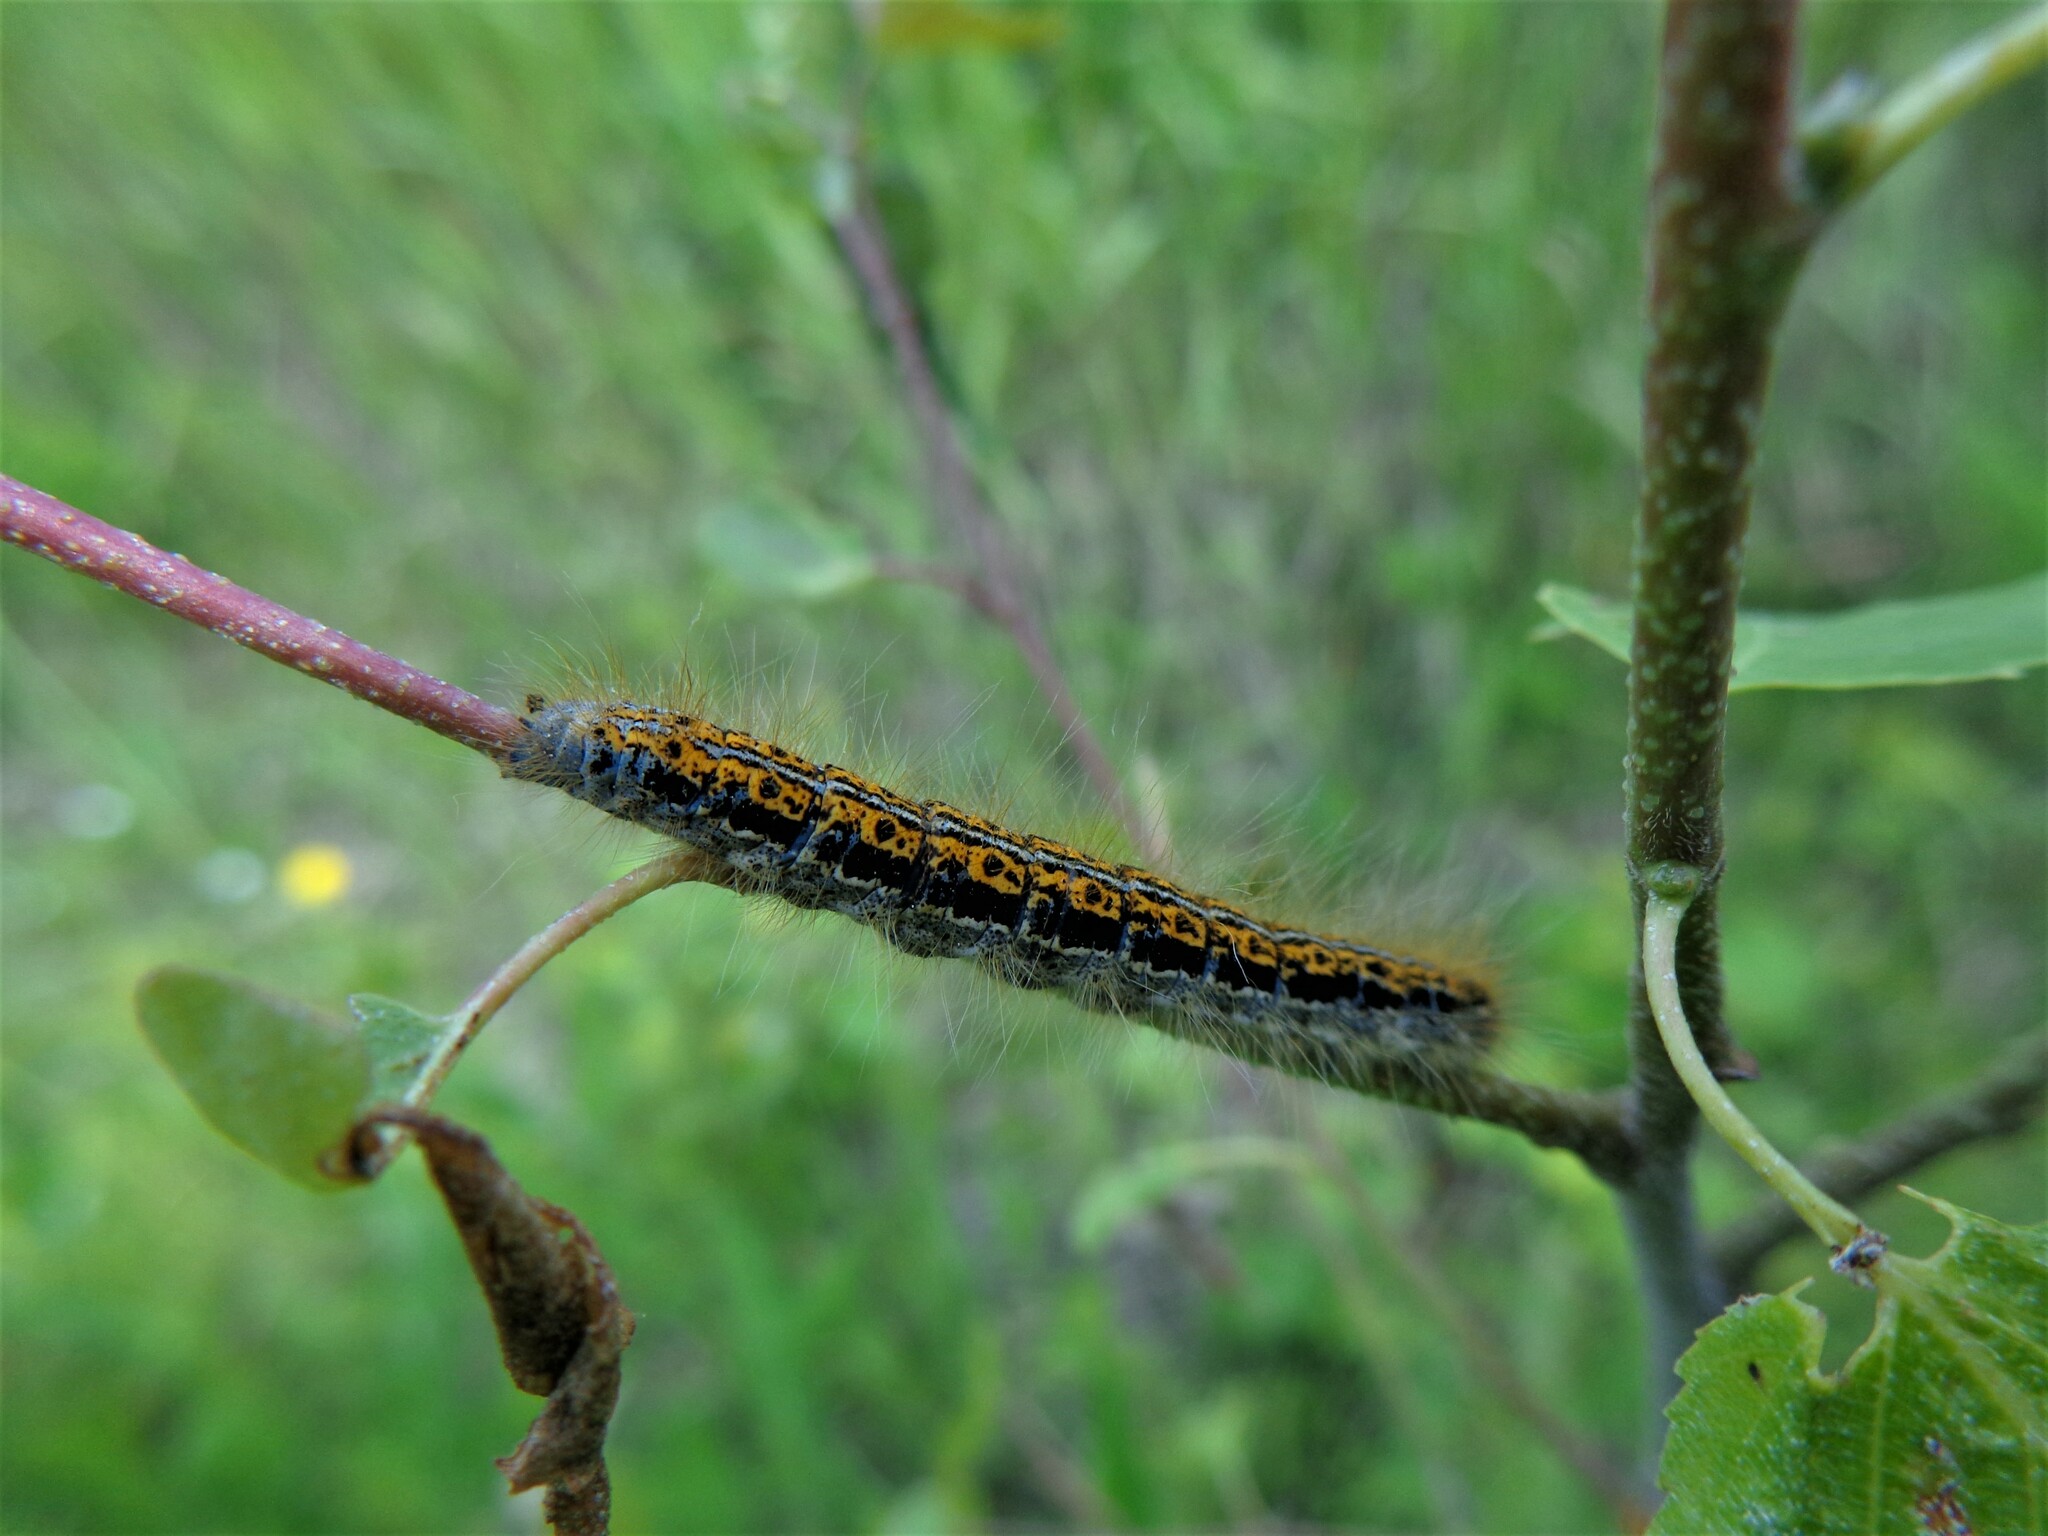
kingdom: Animalia
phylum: Arthropoda
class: Insecta
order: Lepidoptera
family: Lasiocampidae
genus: Malacosoma
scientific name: Malacosoma castrense
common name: Ground lackey
